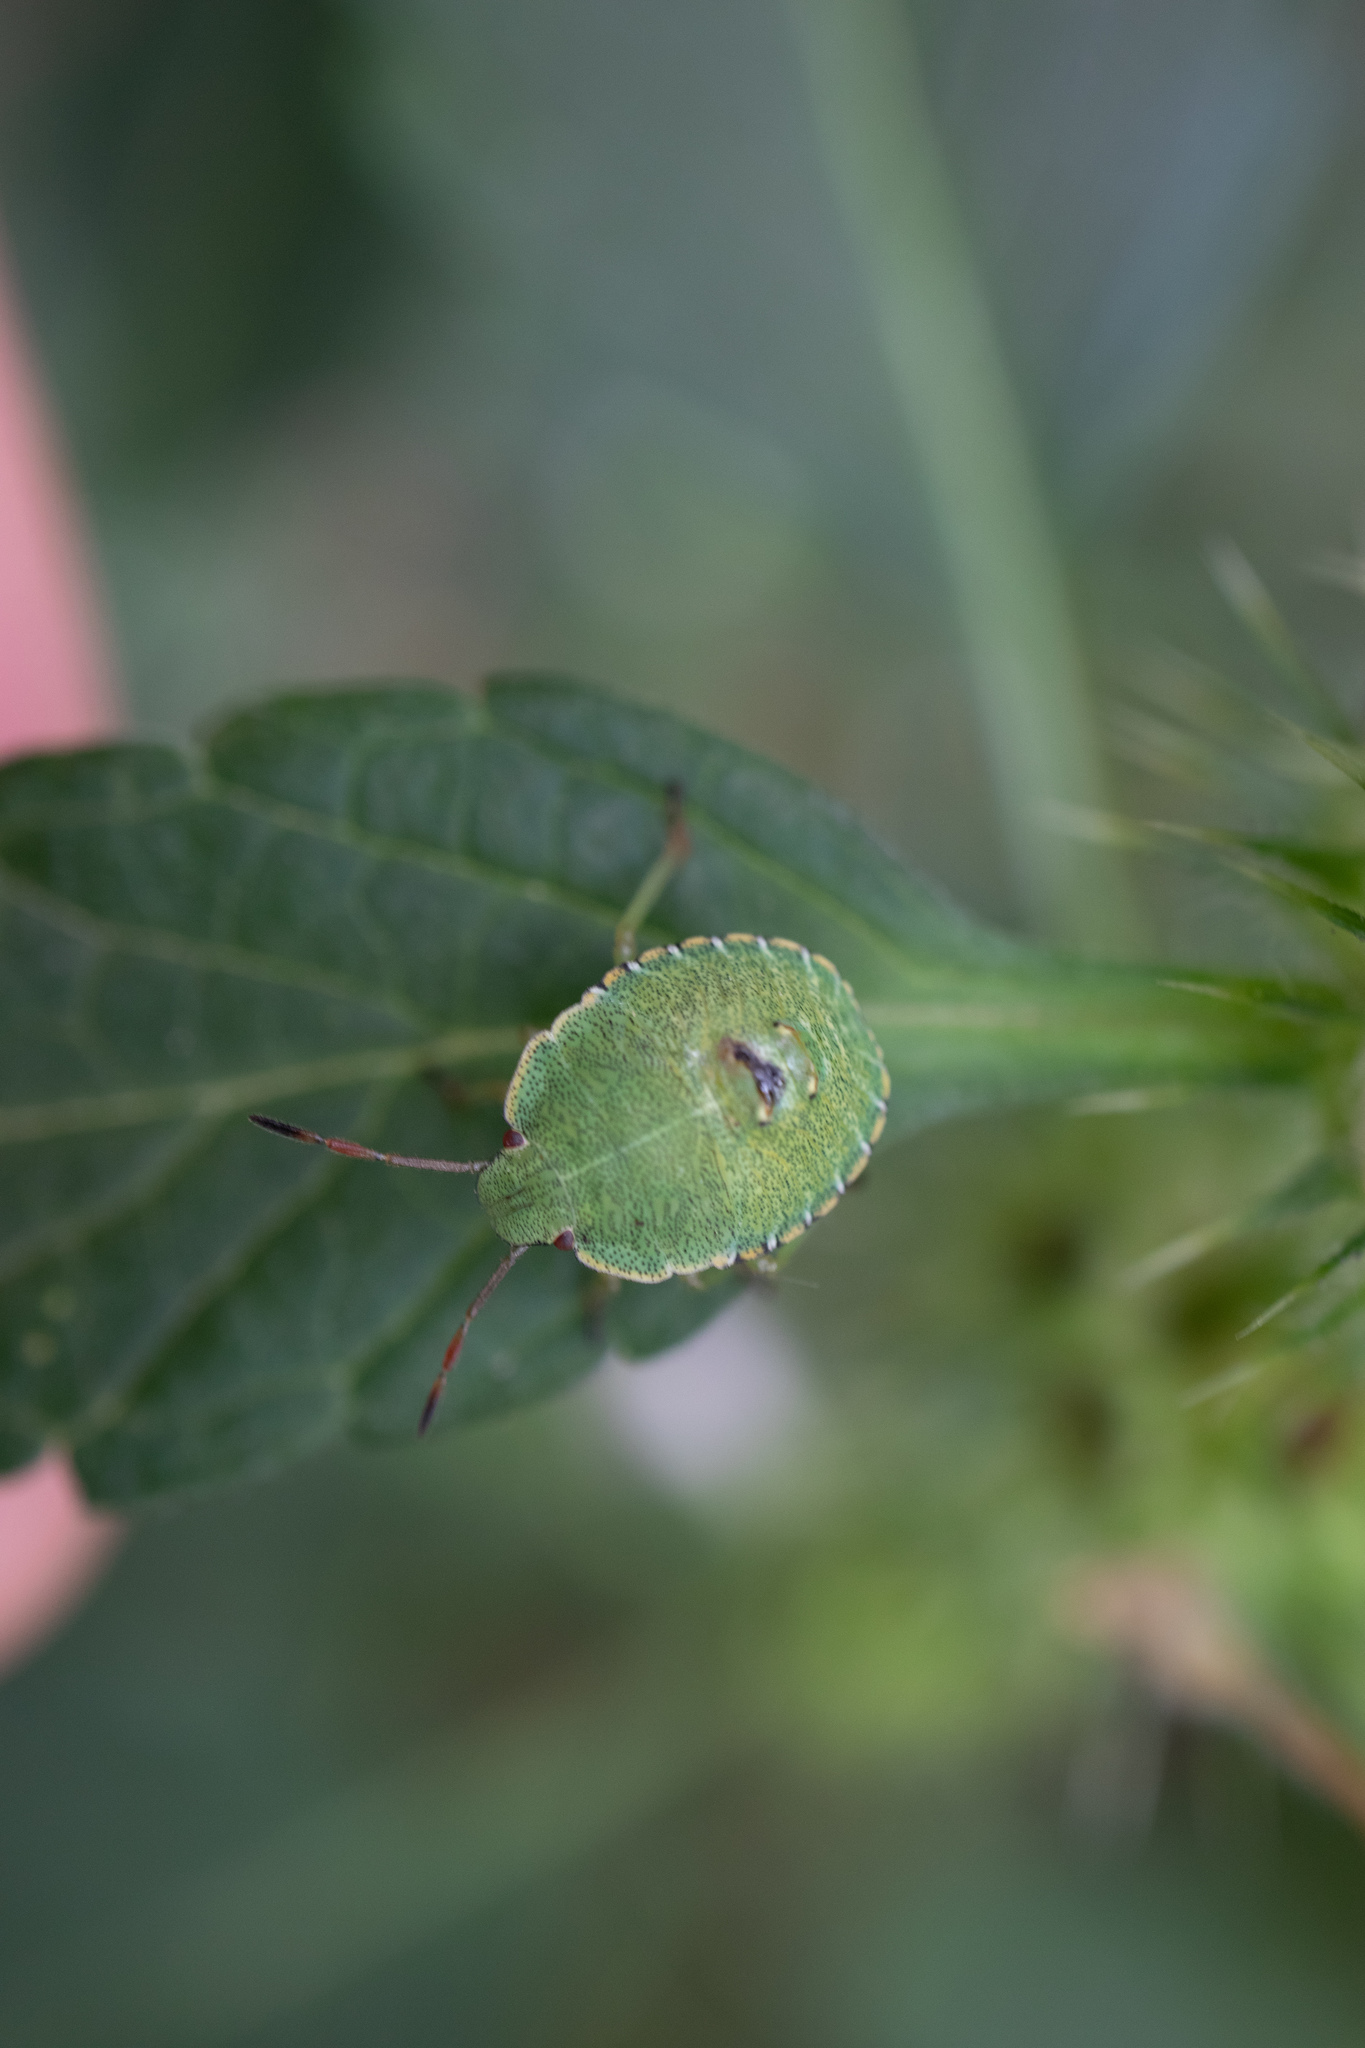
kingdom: Animalia
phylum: Arthropoda
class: Insecta
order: Hemiptera
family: Pentatomidae
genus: Palomena
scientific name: Palomena prasina
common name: Green shieldbug
